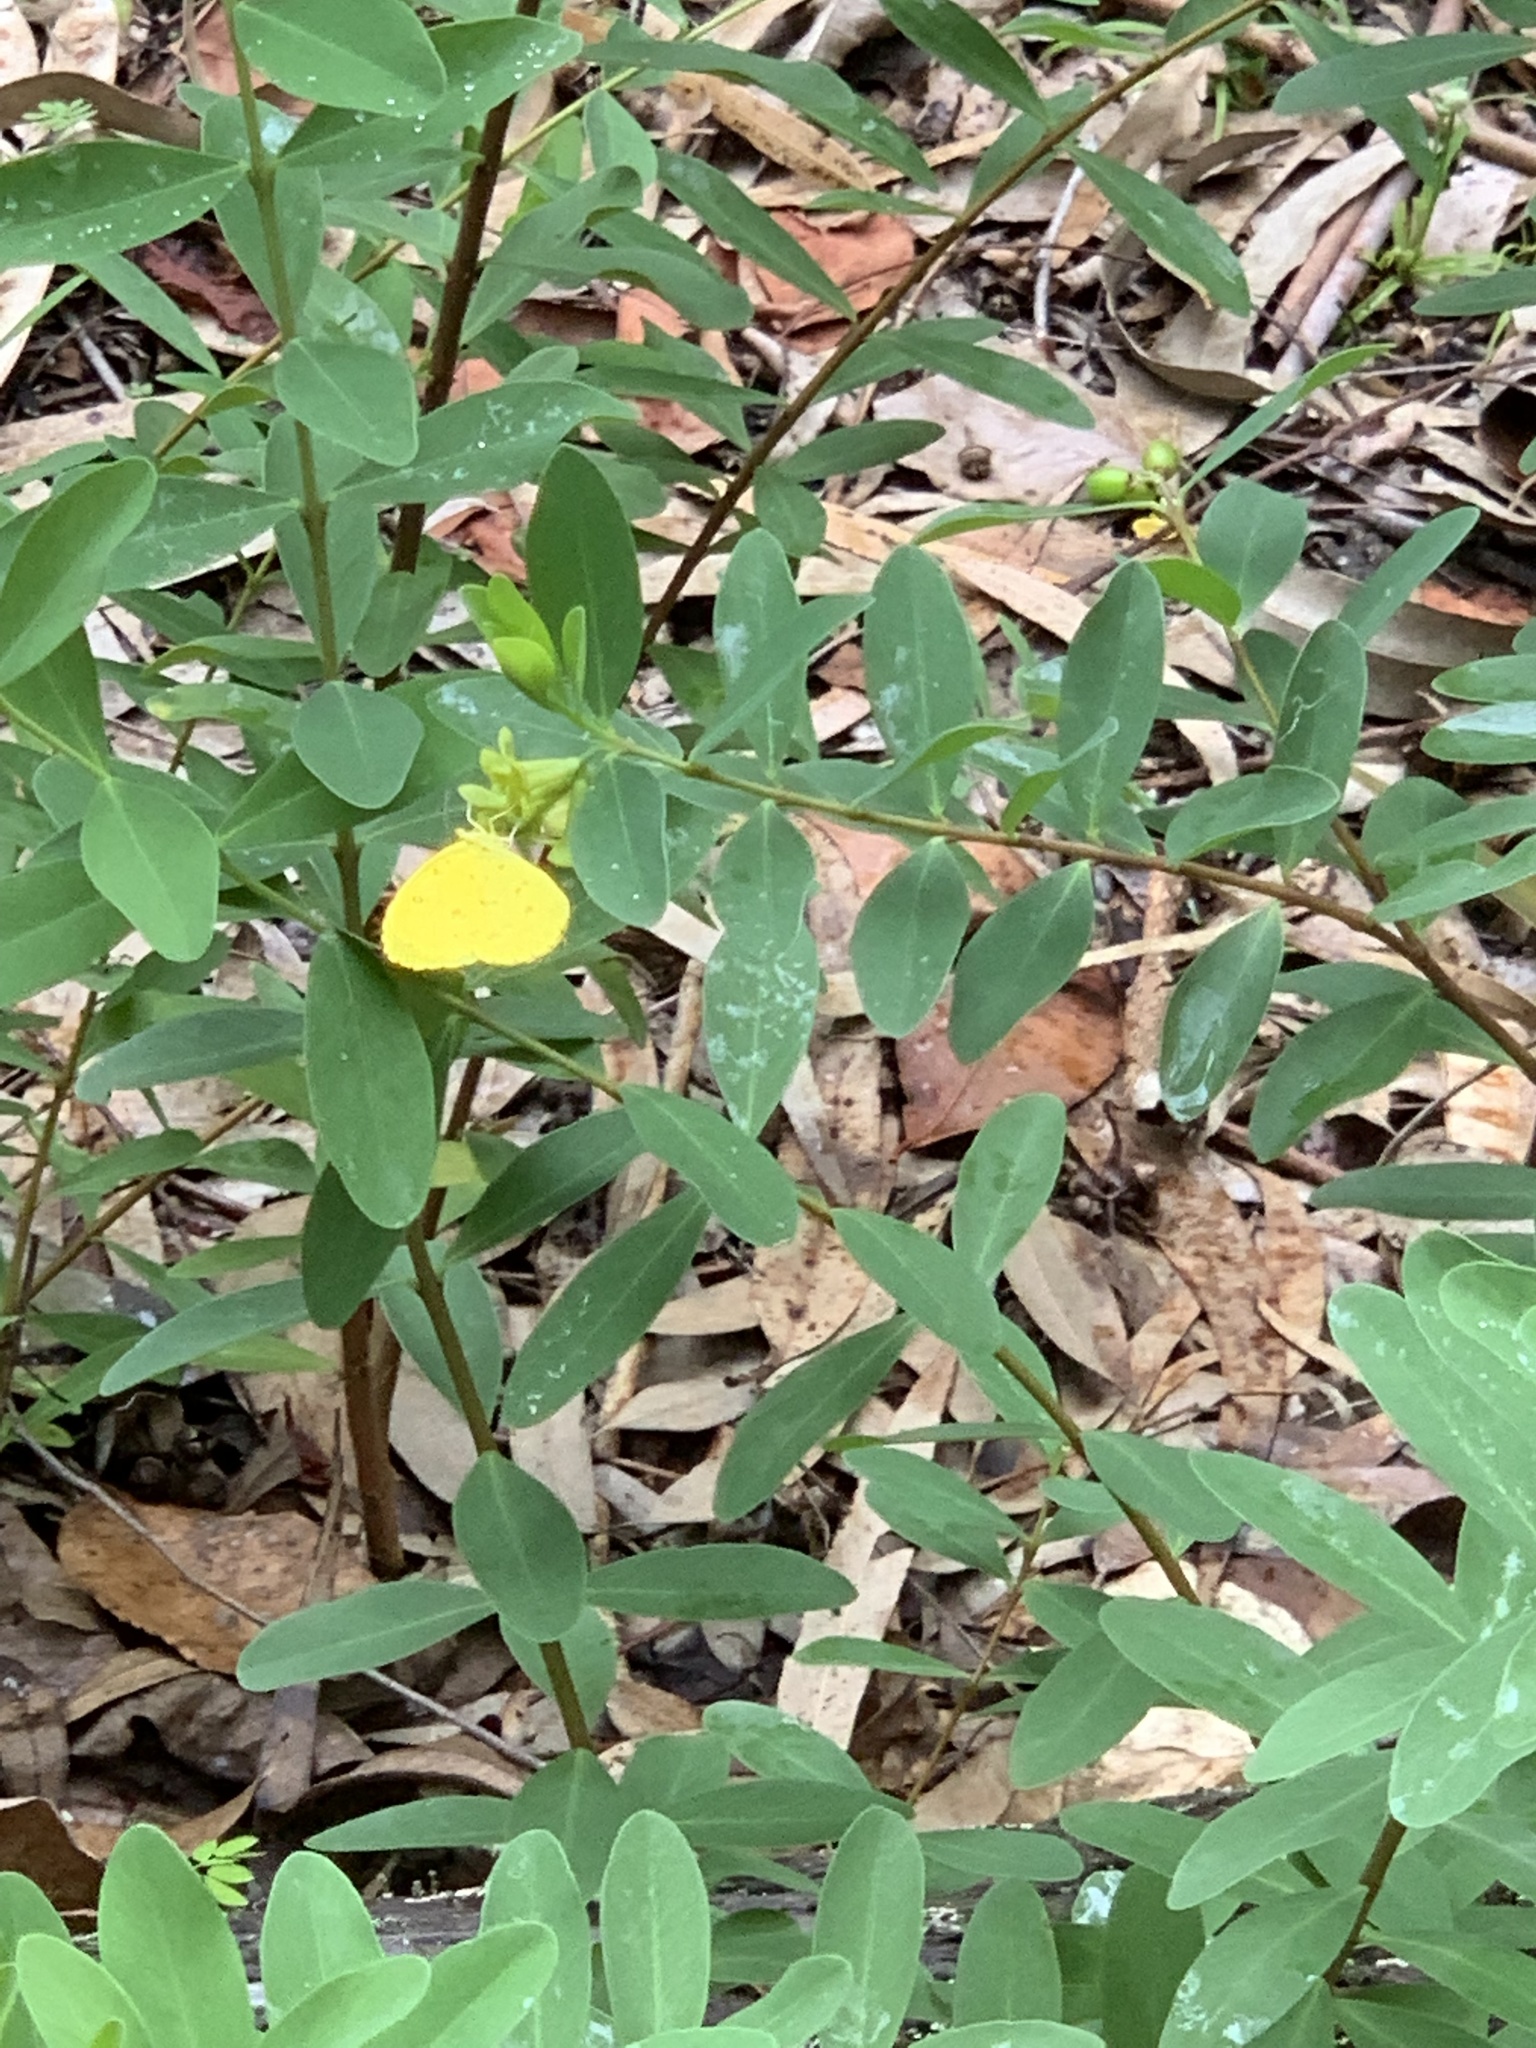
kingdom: Animalia
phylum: Arthropoda
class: Insecta
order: Lepidoptera
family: Pieridae
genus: Eurema
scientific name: Eurema floricola
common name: Malagasy grass yellow
